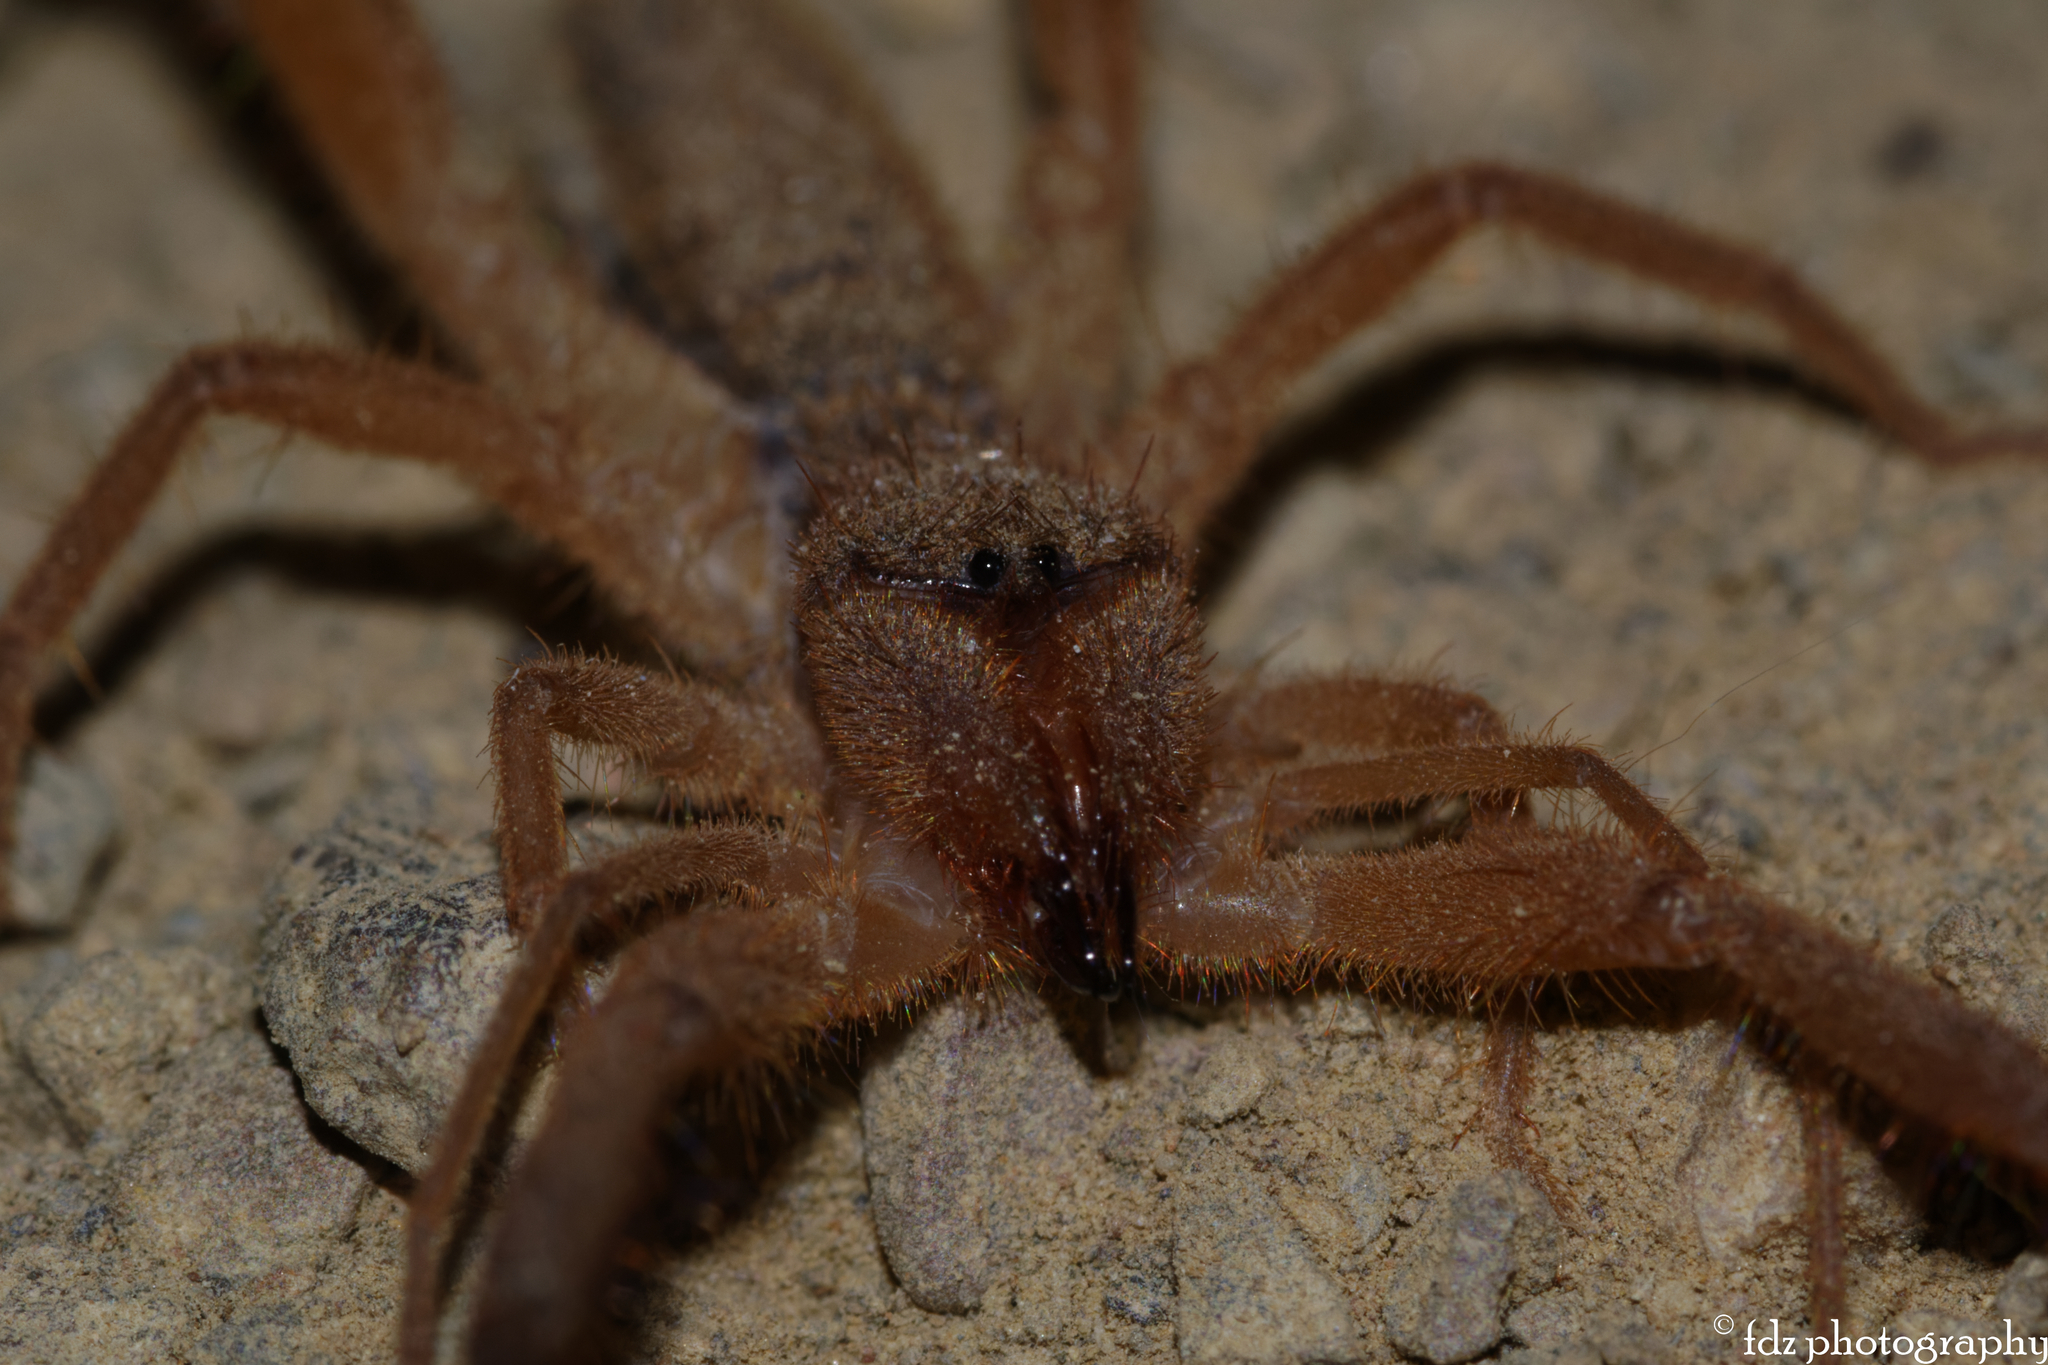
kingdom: Animalia
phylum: Arthropoda
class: Arachnida
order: Solifugae
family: Daesiidae
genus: Gluvia
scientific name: Gluvia dorsalis
